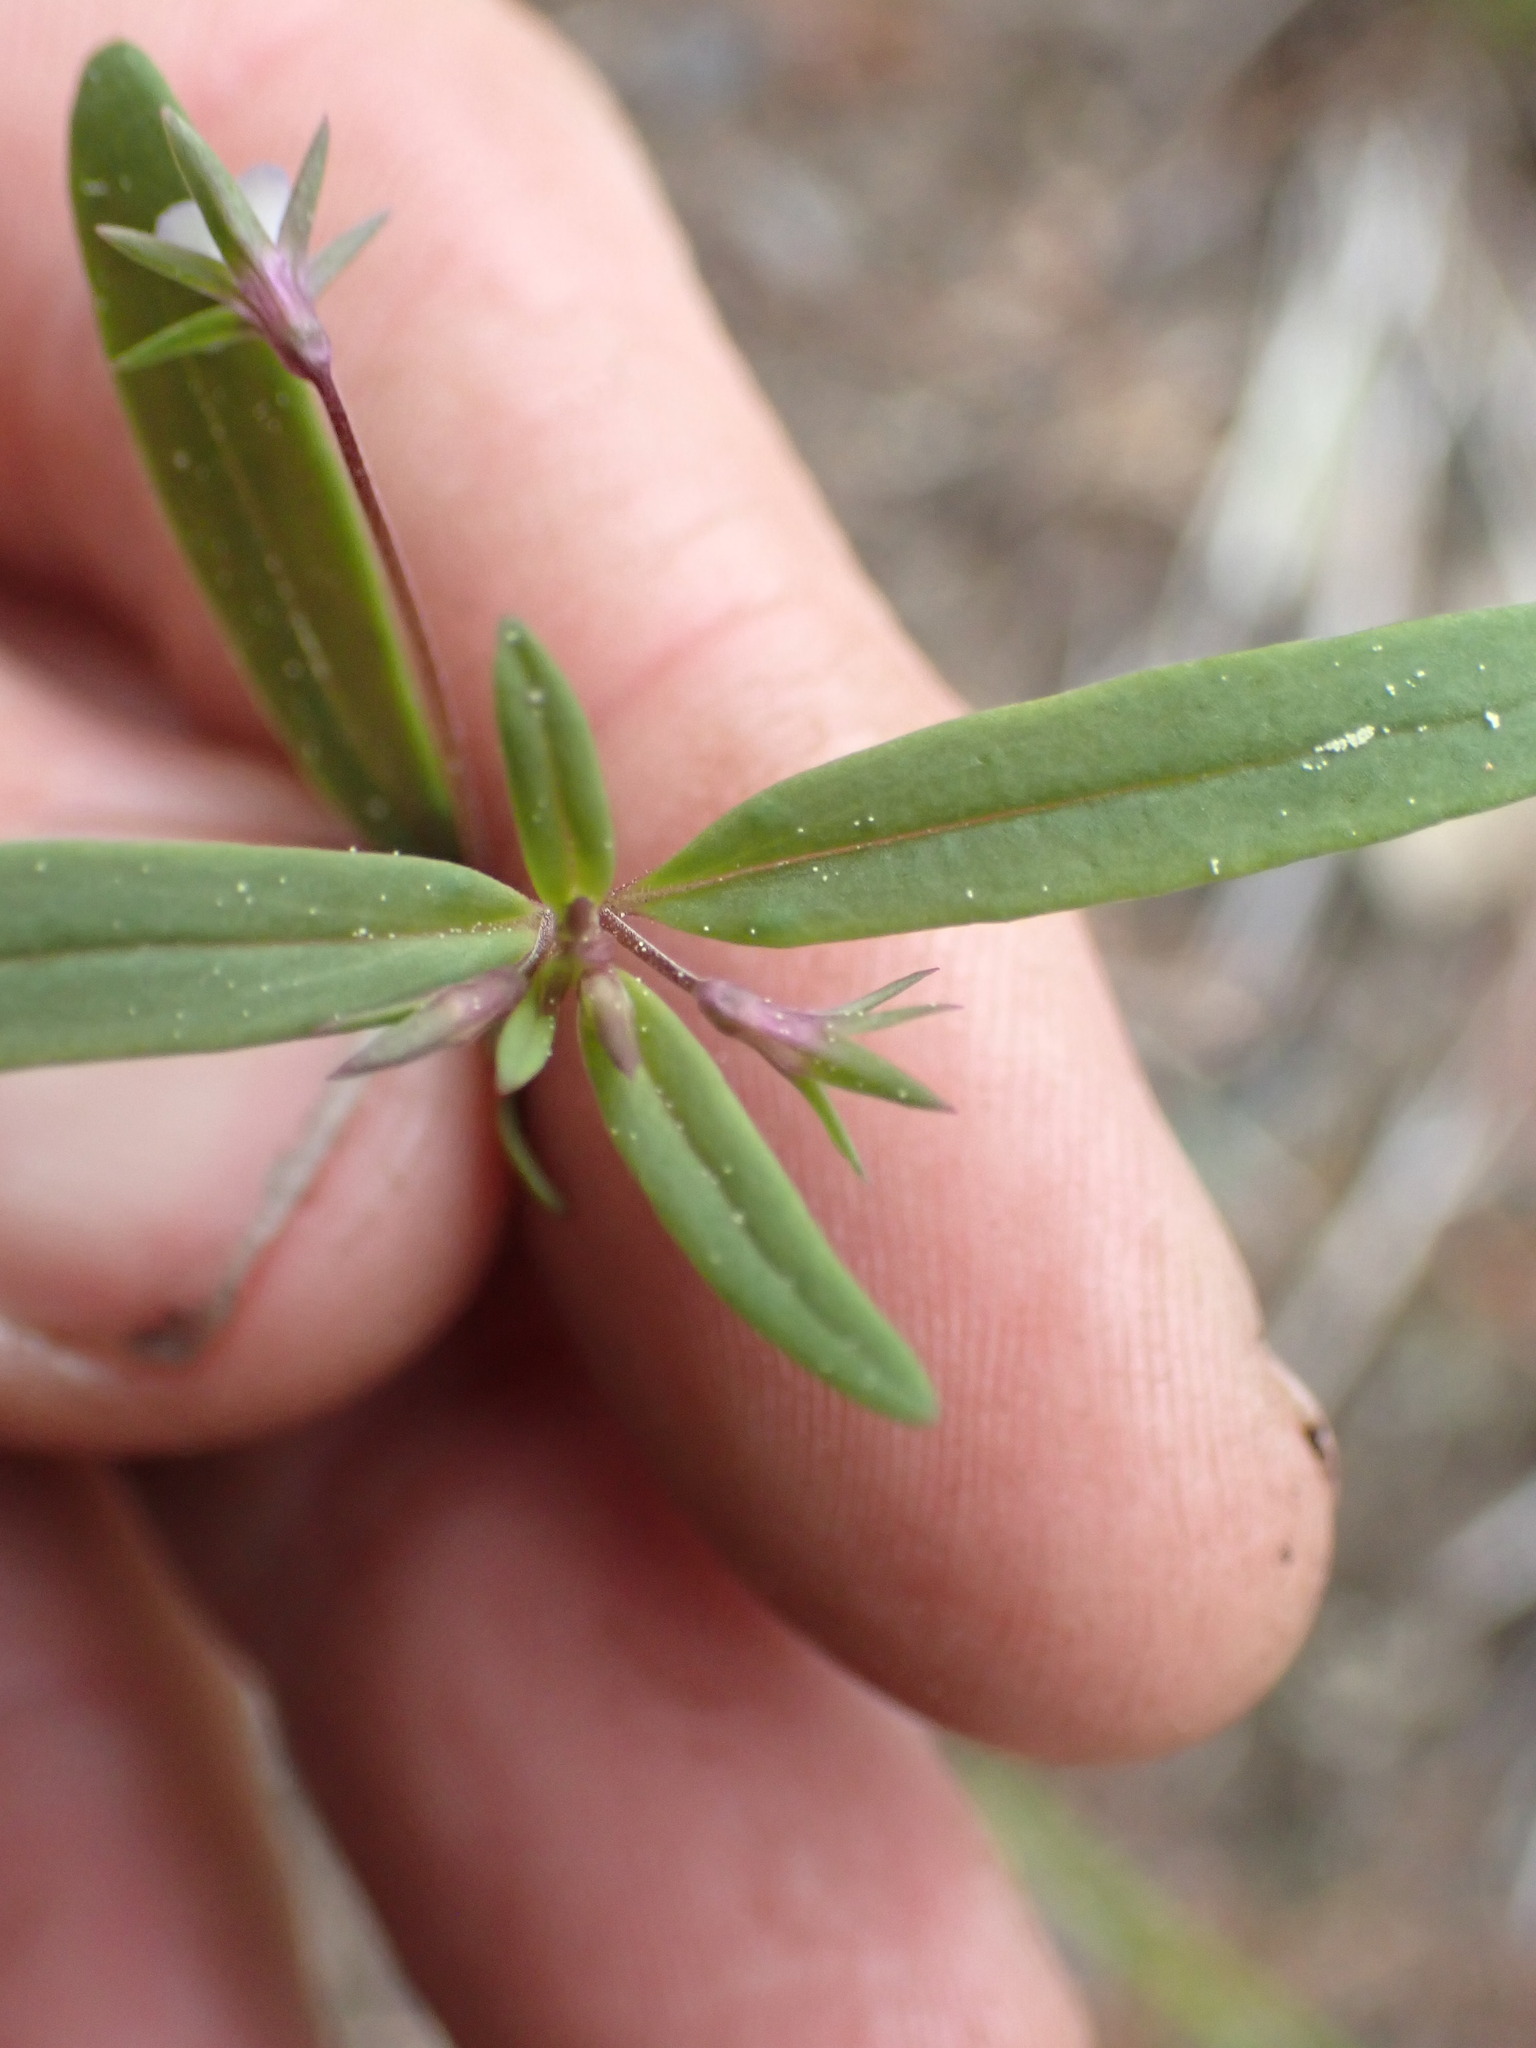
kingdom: Plantae
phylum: Tracheophyta
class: Magnoliopsida
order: Lamiales
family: Plantaginaceae
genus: Collinsia
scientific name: Collinsia parviflora
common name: Blue-lips
